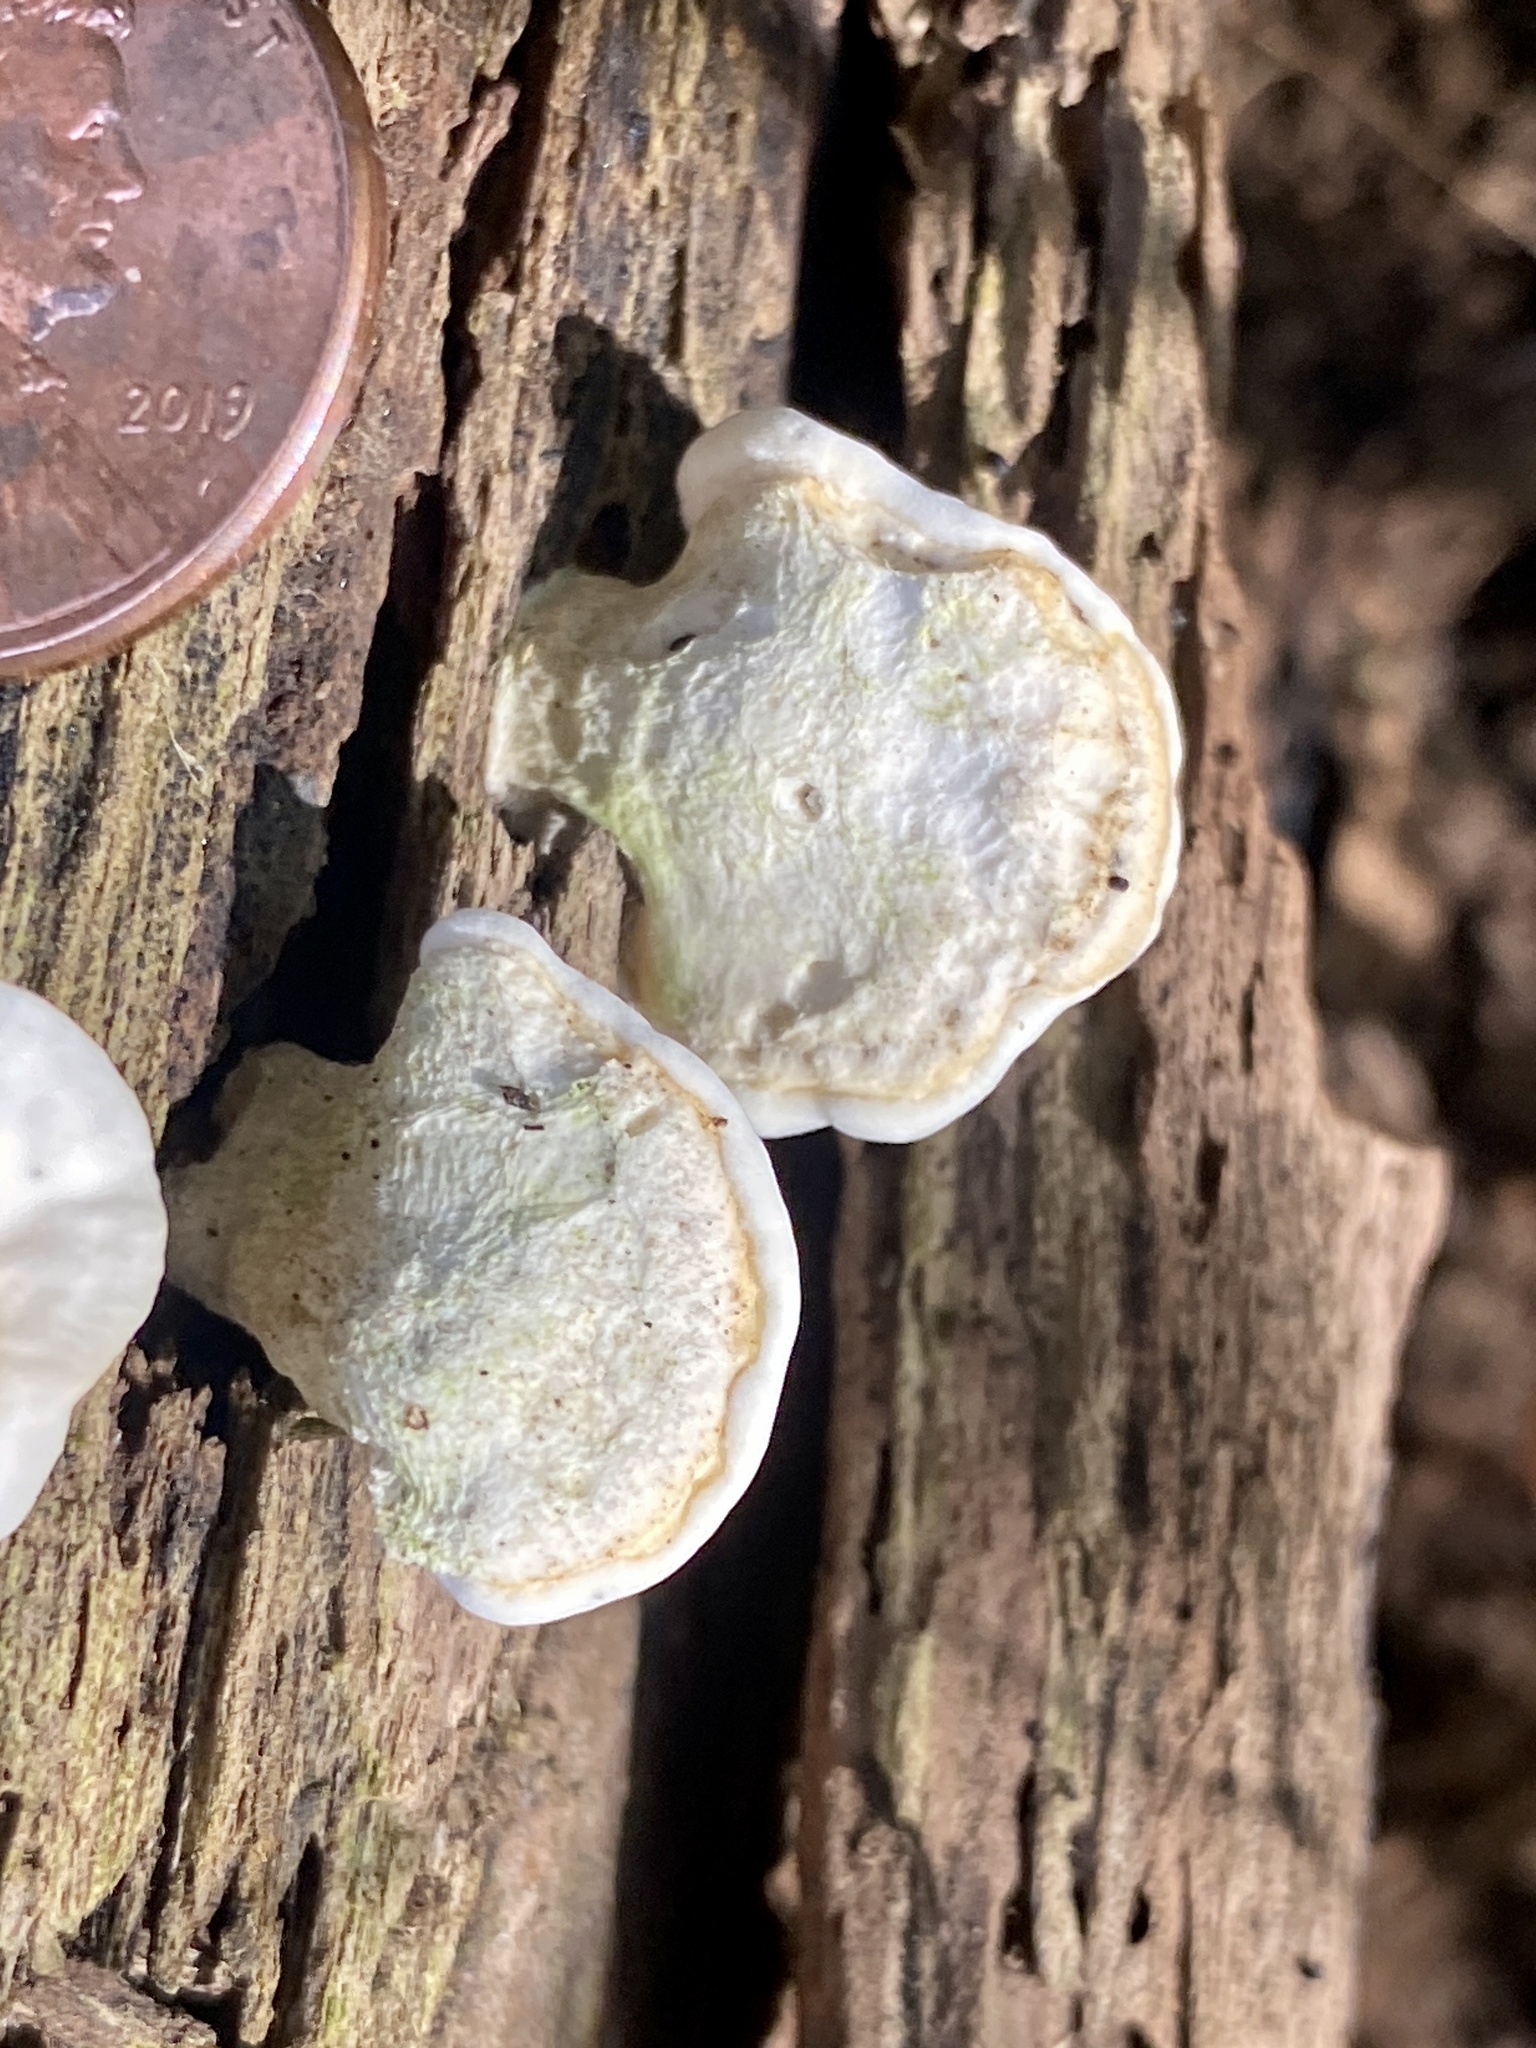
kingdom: Fungi
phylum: Basidiomycota
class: Agaricomycetes
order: Polyporales
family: Steccherinaceae
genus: Loweomyces
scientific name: Loweomyces fractipes
